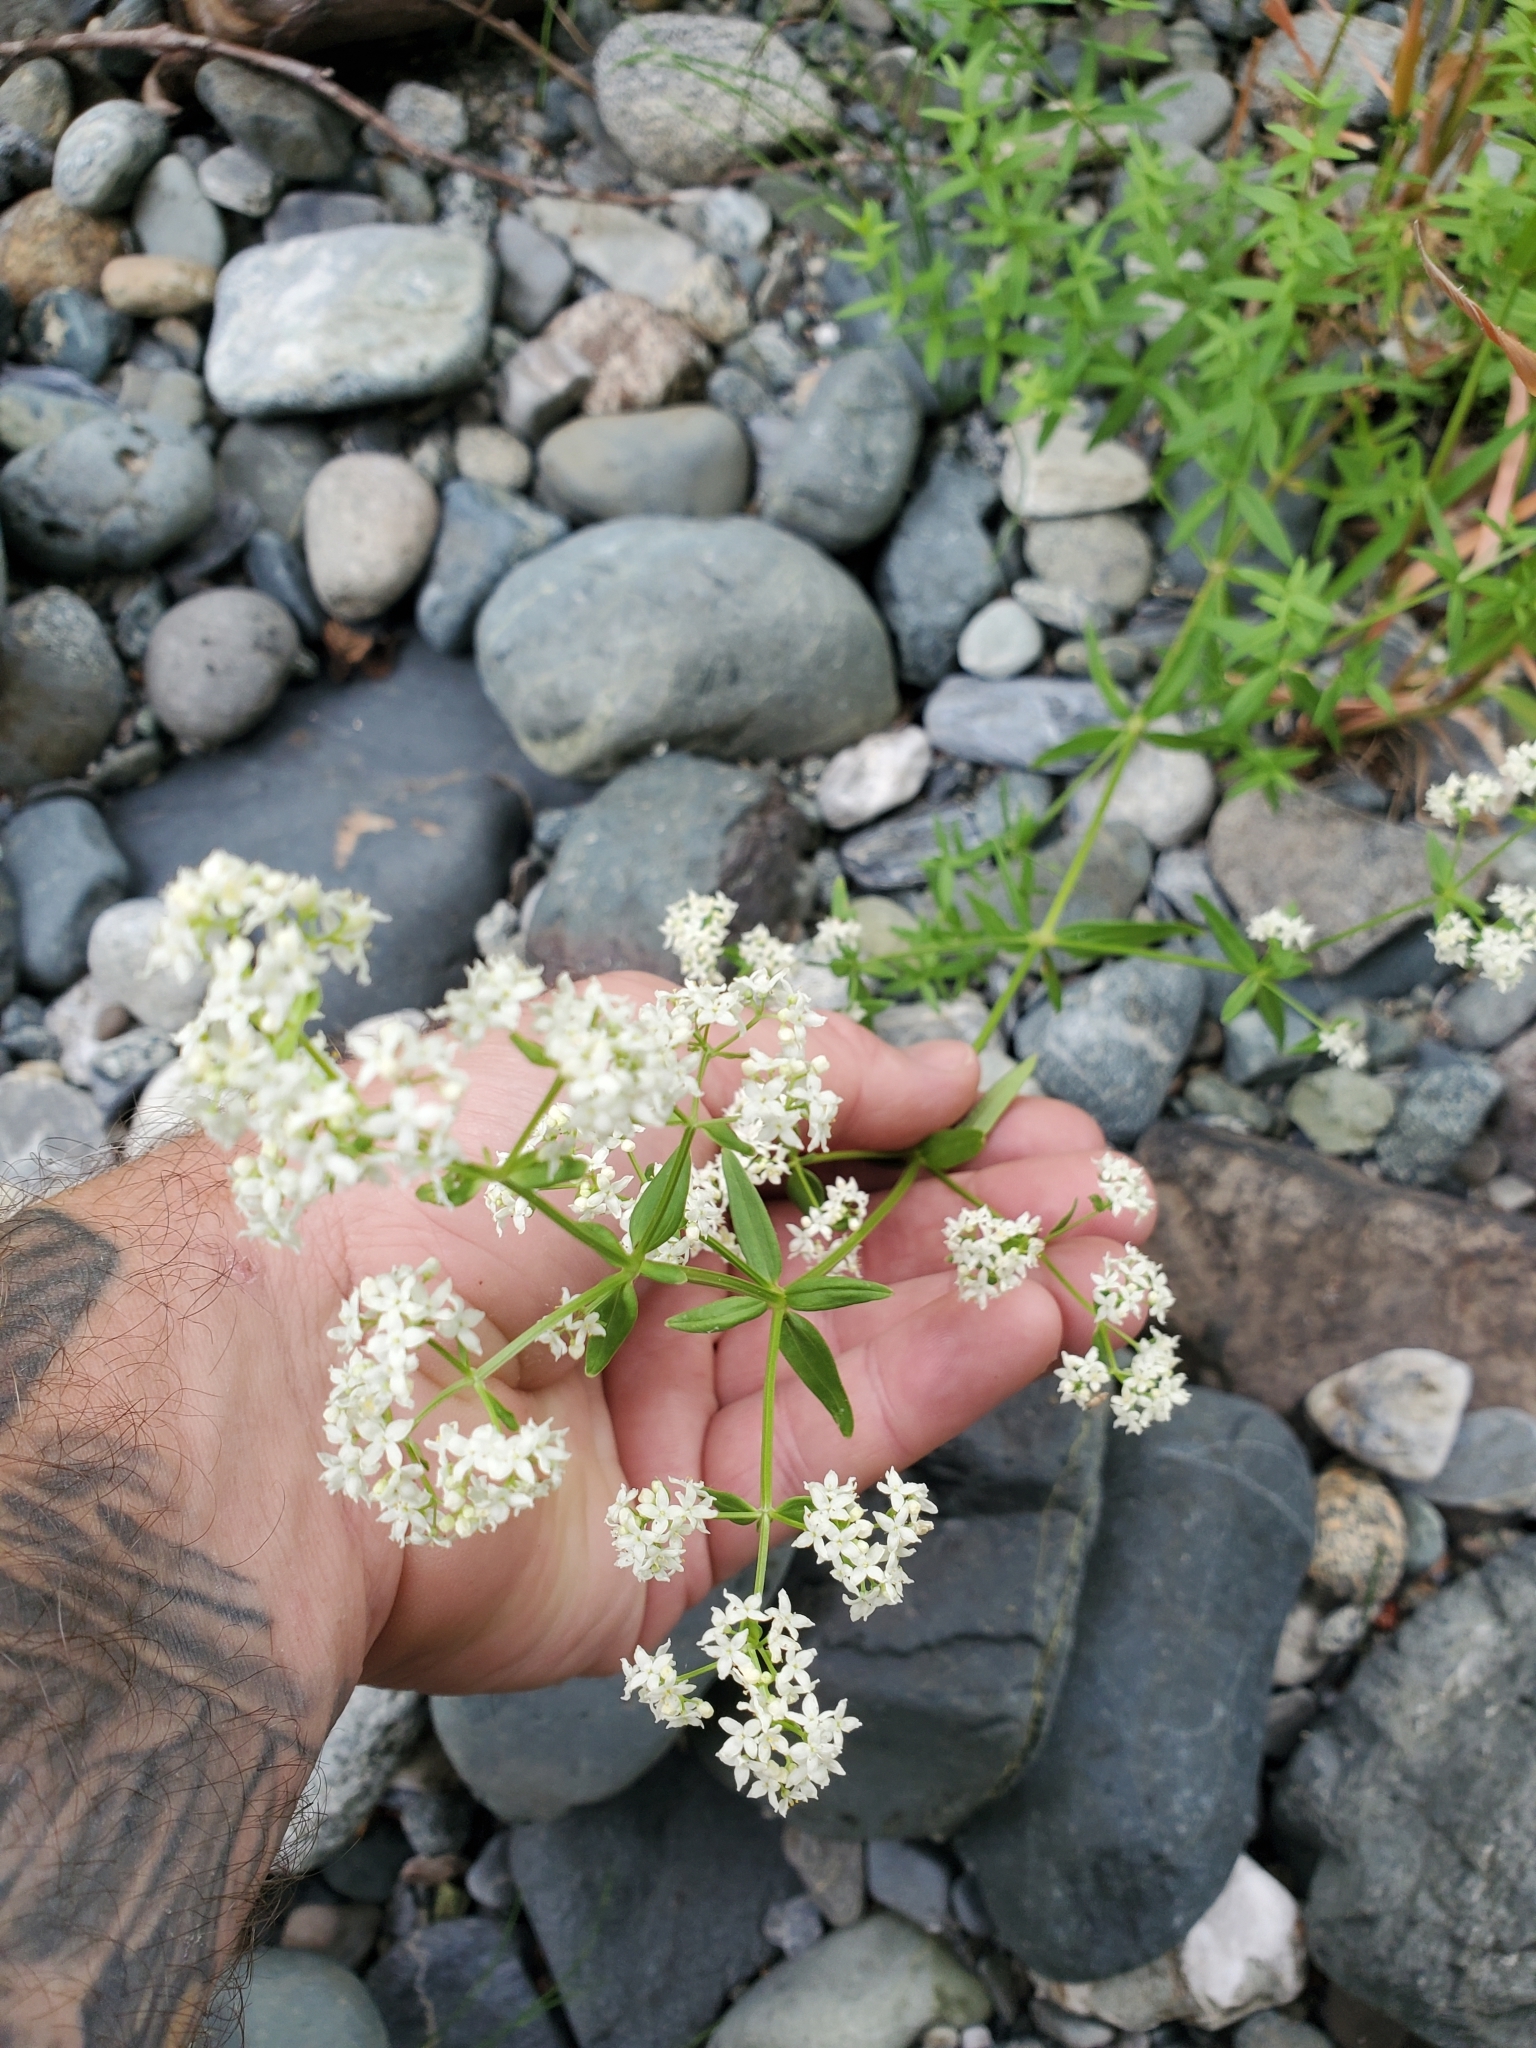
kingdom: Plantae
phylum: Tracheophyta
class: Magnoliopsida
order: Gentianales
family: Rubiaceae
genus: Galium
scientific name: Galium boreale
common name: Northern bedstraw
